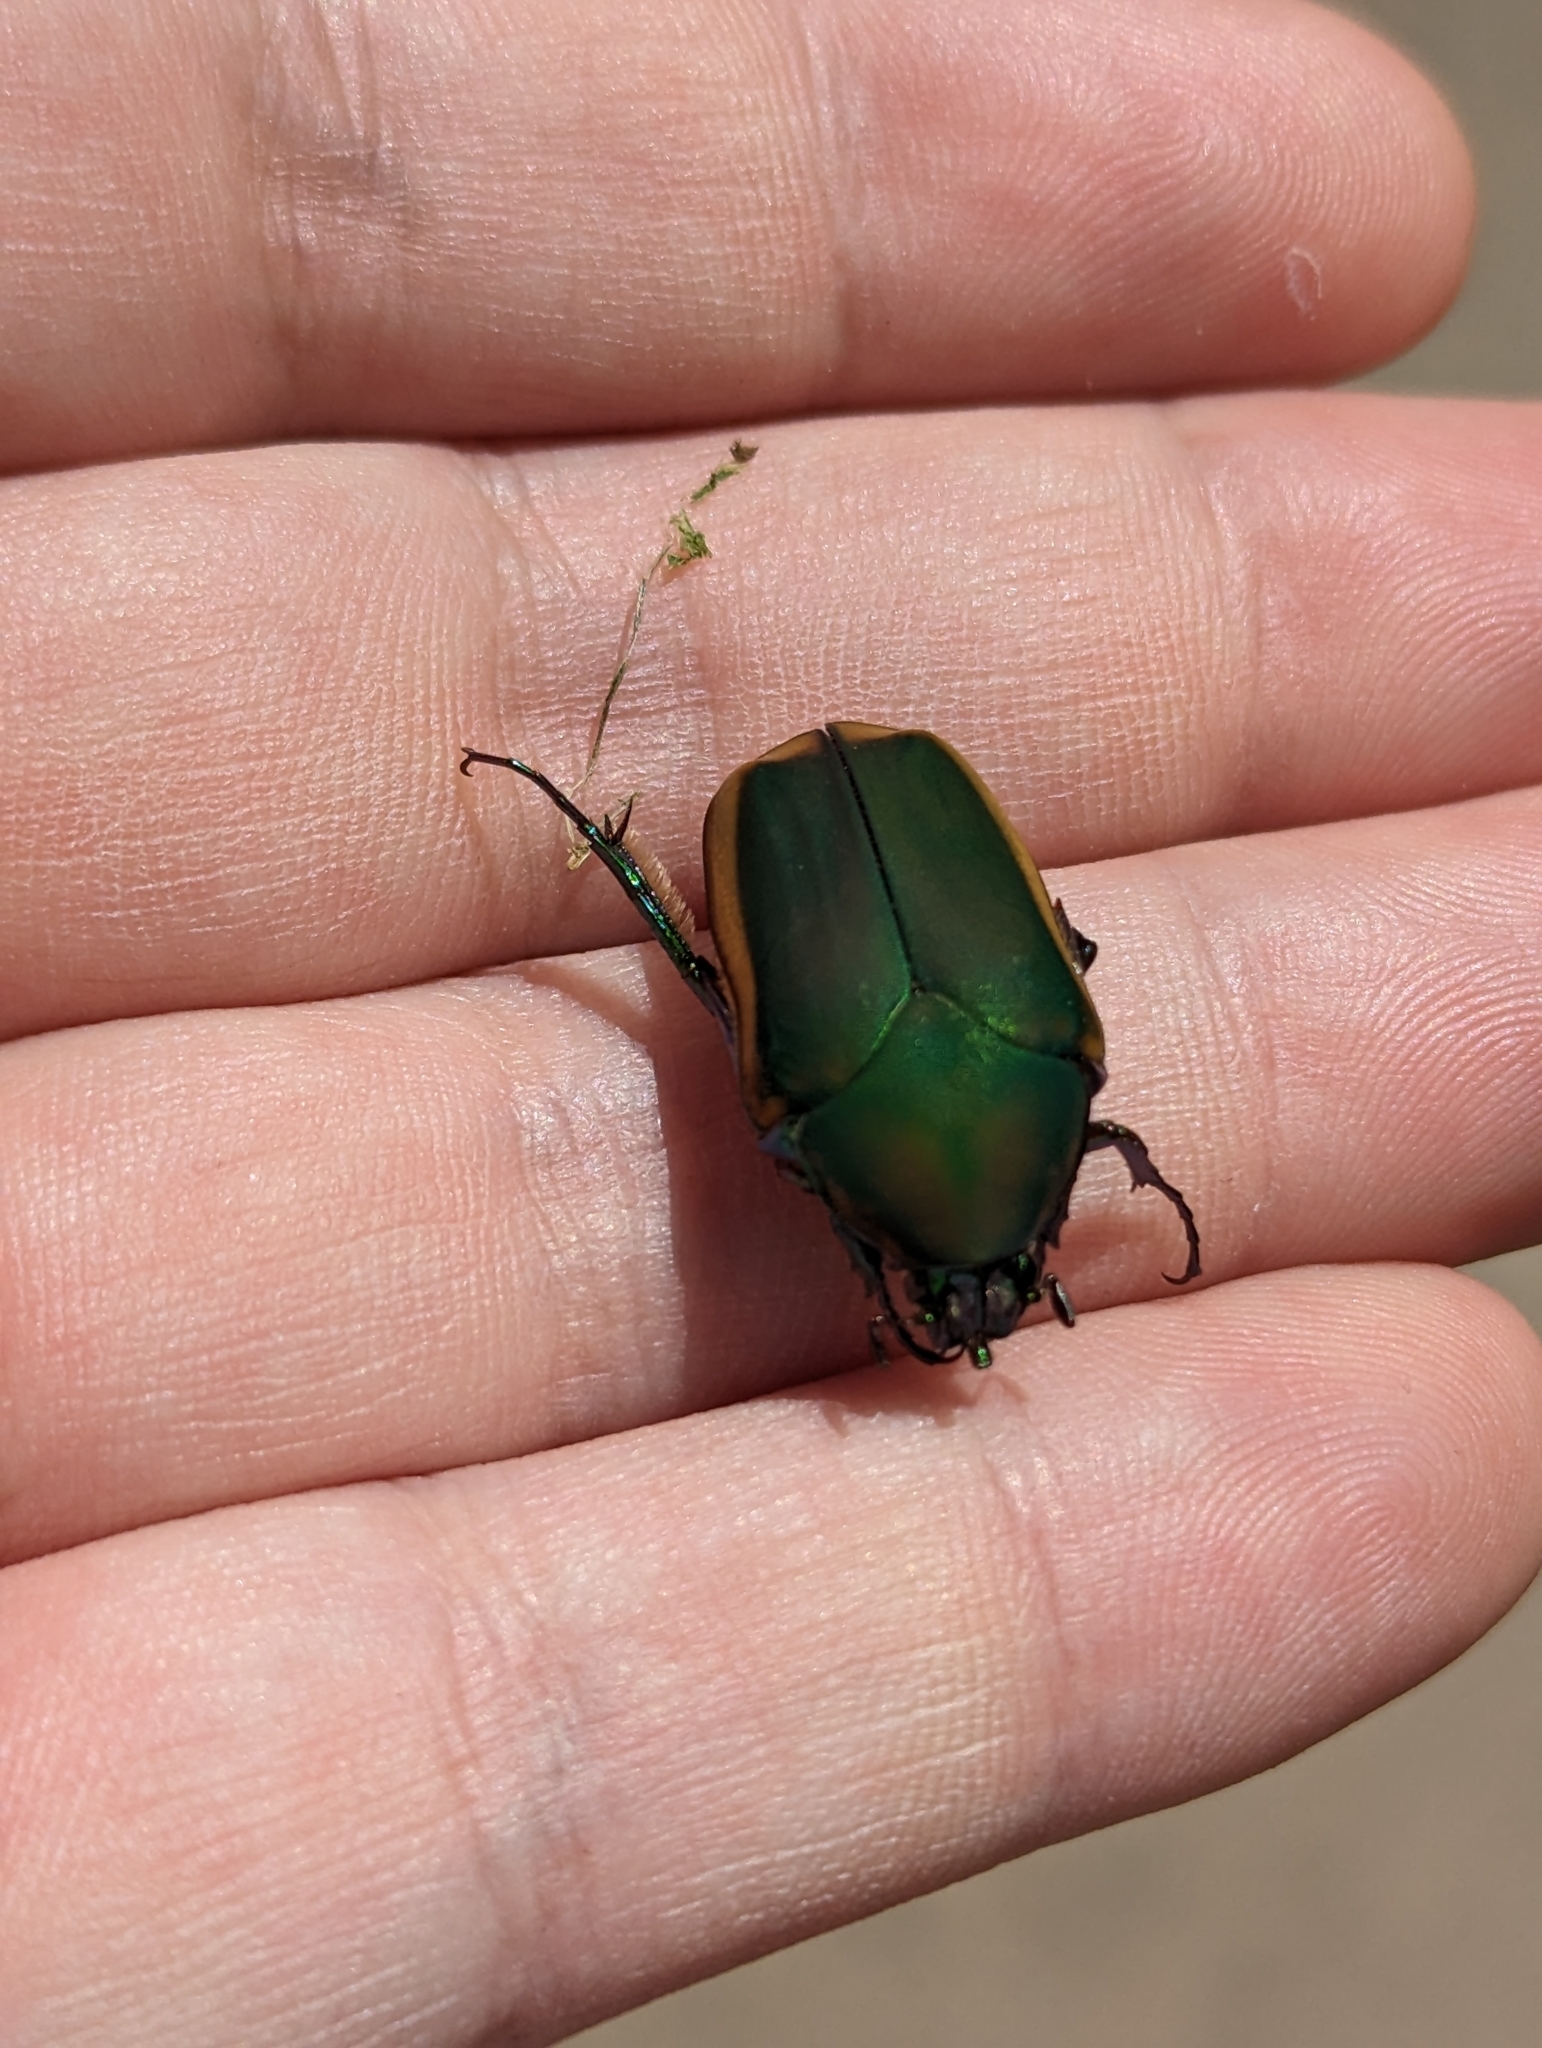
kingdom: Animalia
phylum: Arthropoda
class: Insecta
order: Coleoptera
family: Scarabaeidae
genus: Cotinis
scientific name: Cotinis mutabilis
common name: Figeater beetle
